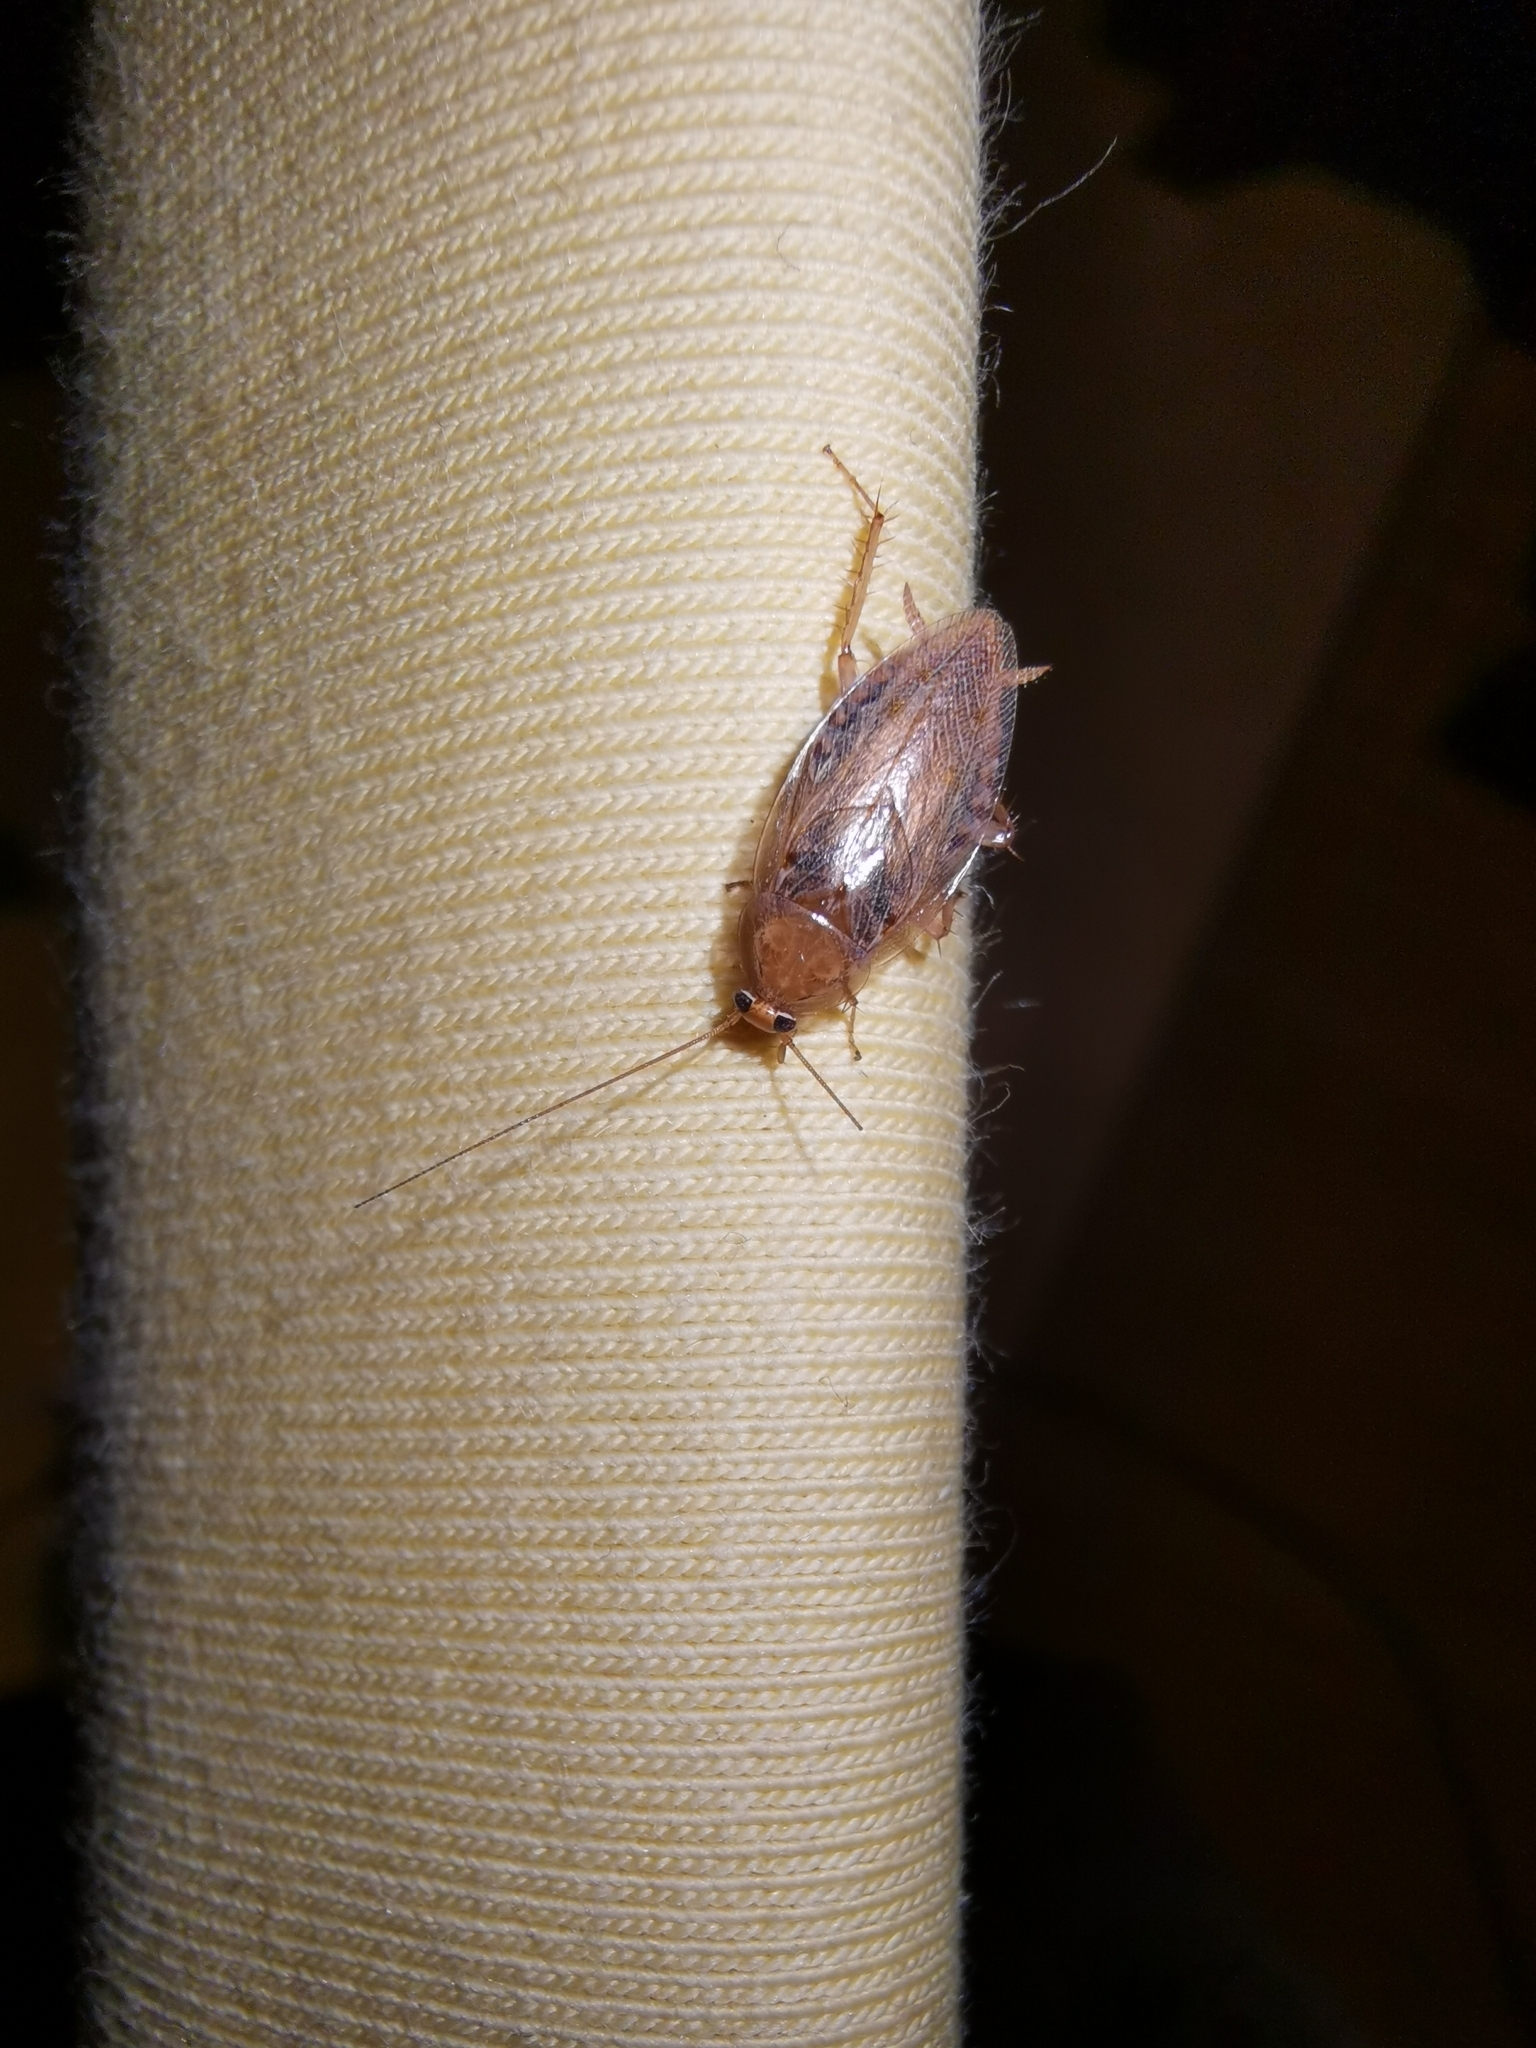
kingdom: Animalia
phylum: Arthropoda
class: Insecta
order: Blattodea
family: Ectobiidae
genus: Ectobius
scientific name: Ectobius vittiventris
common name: Garden cockroach
